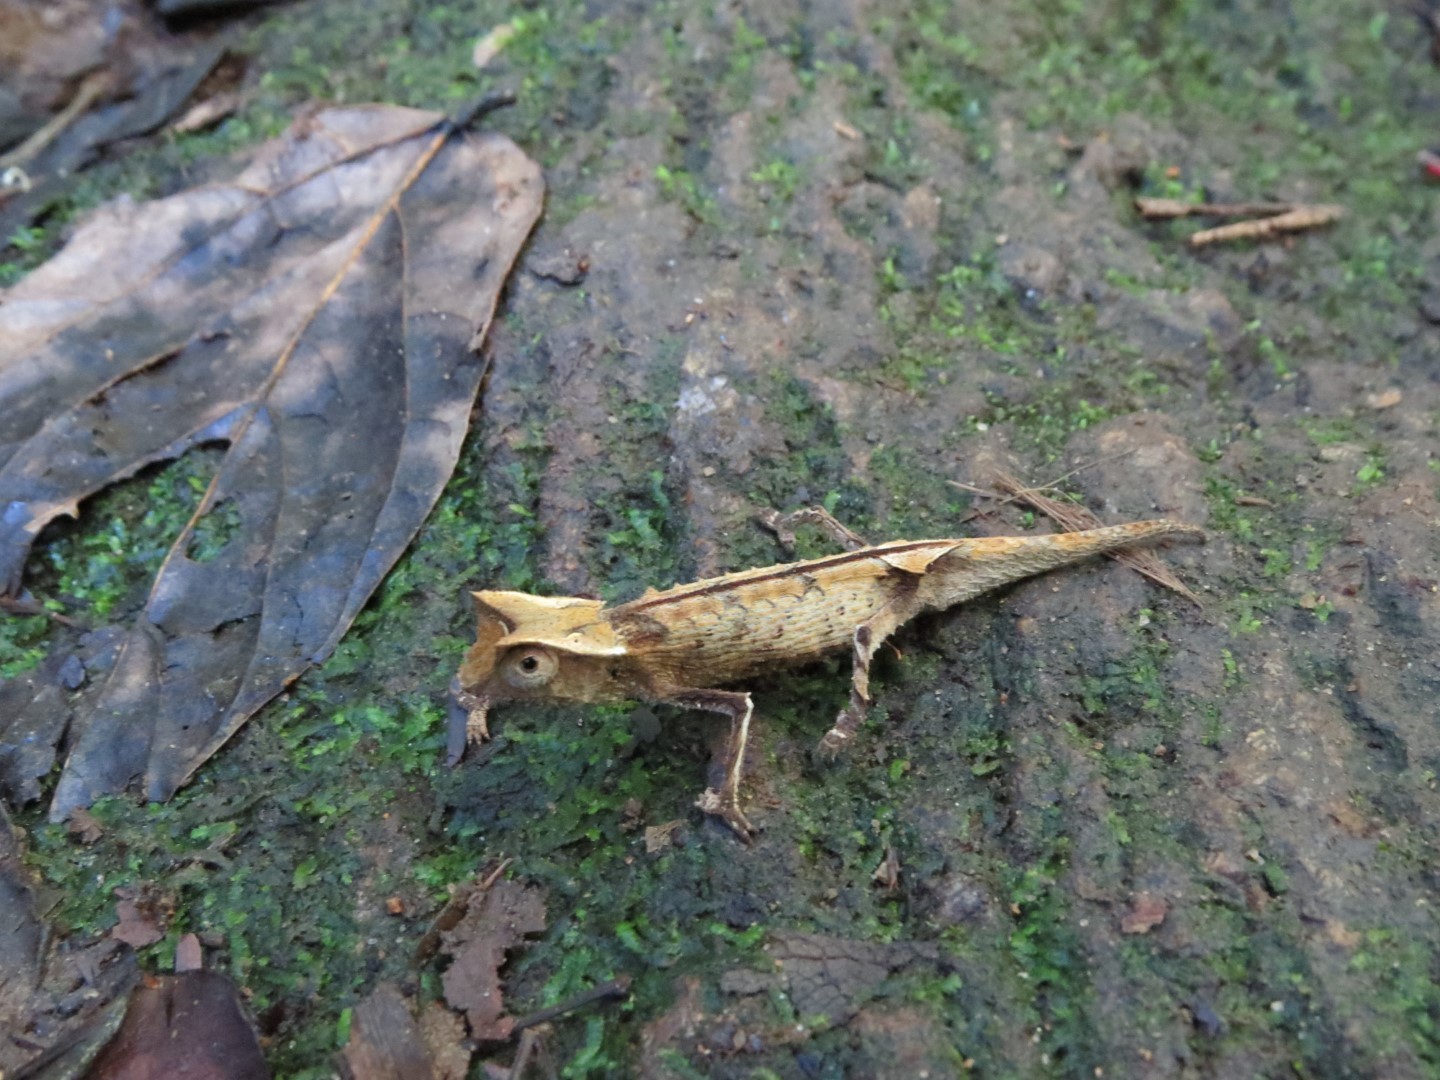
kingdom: Animalia
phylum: Chordata
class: Squamata
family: Chamaeleonidae
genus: Brookesia
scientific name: Brookesia griveaudi
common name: Marojejy leaf chameleon
